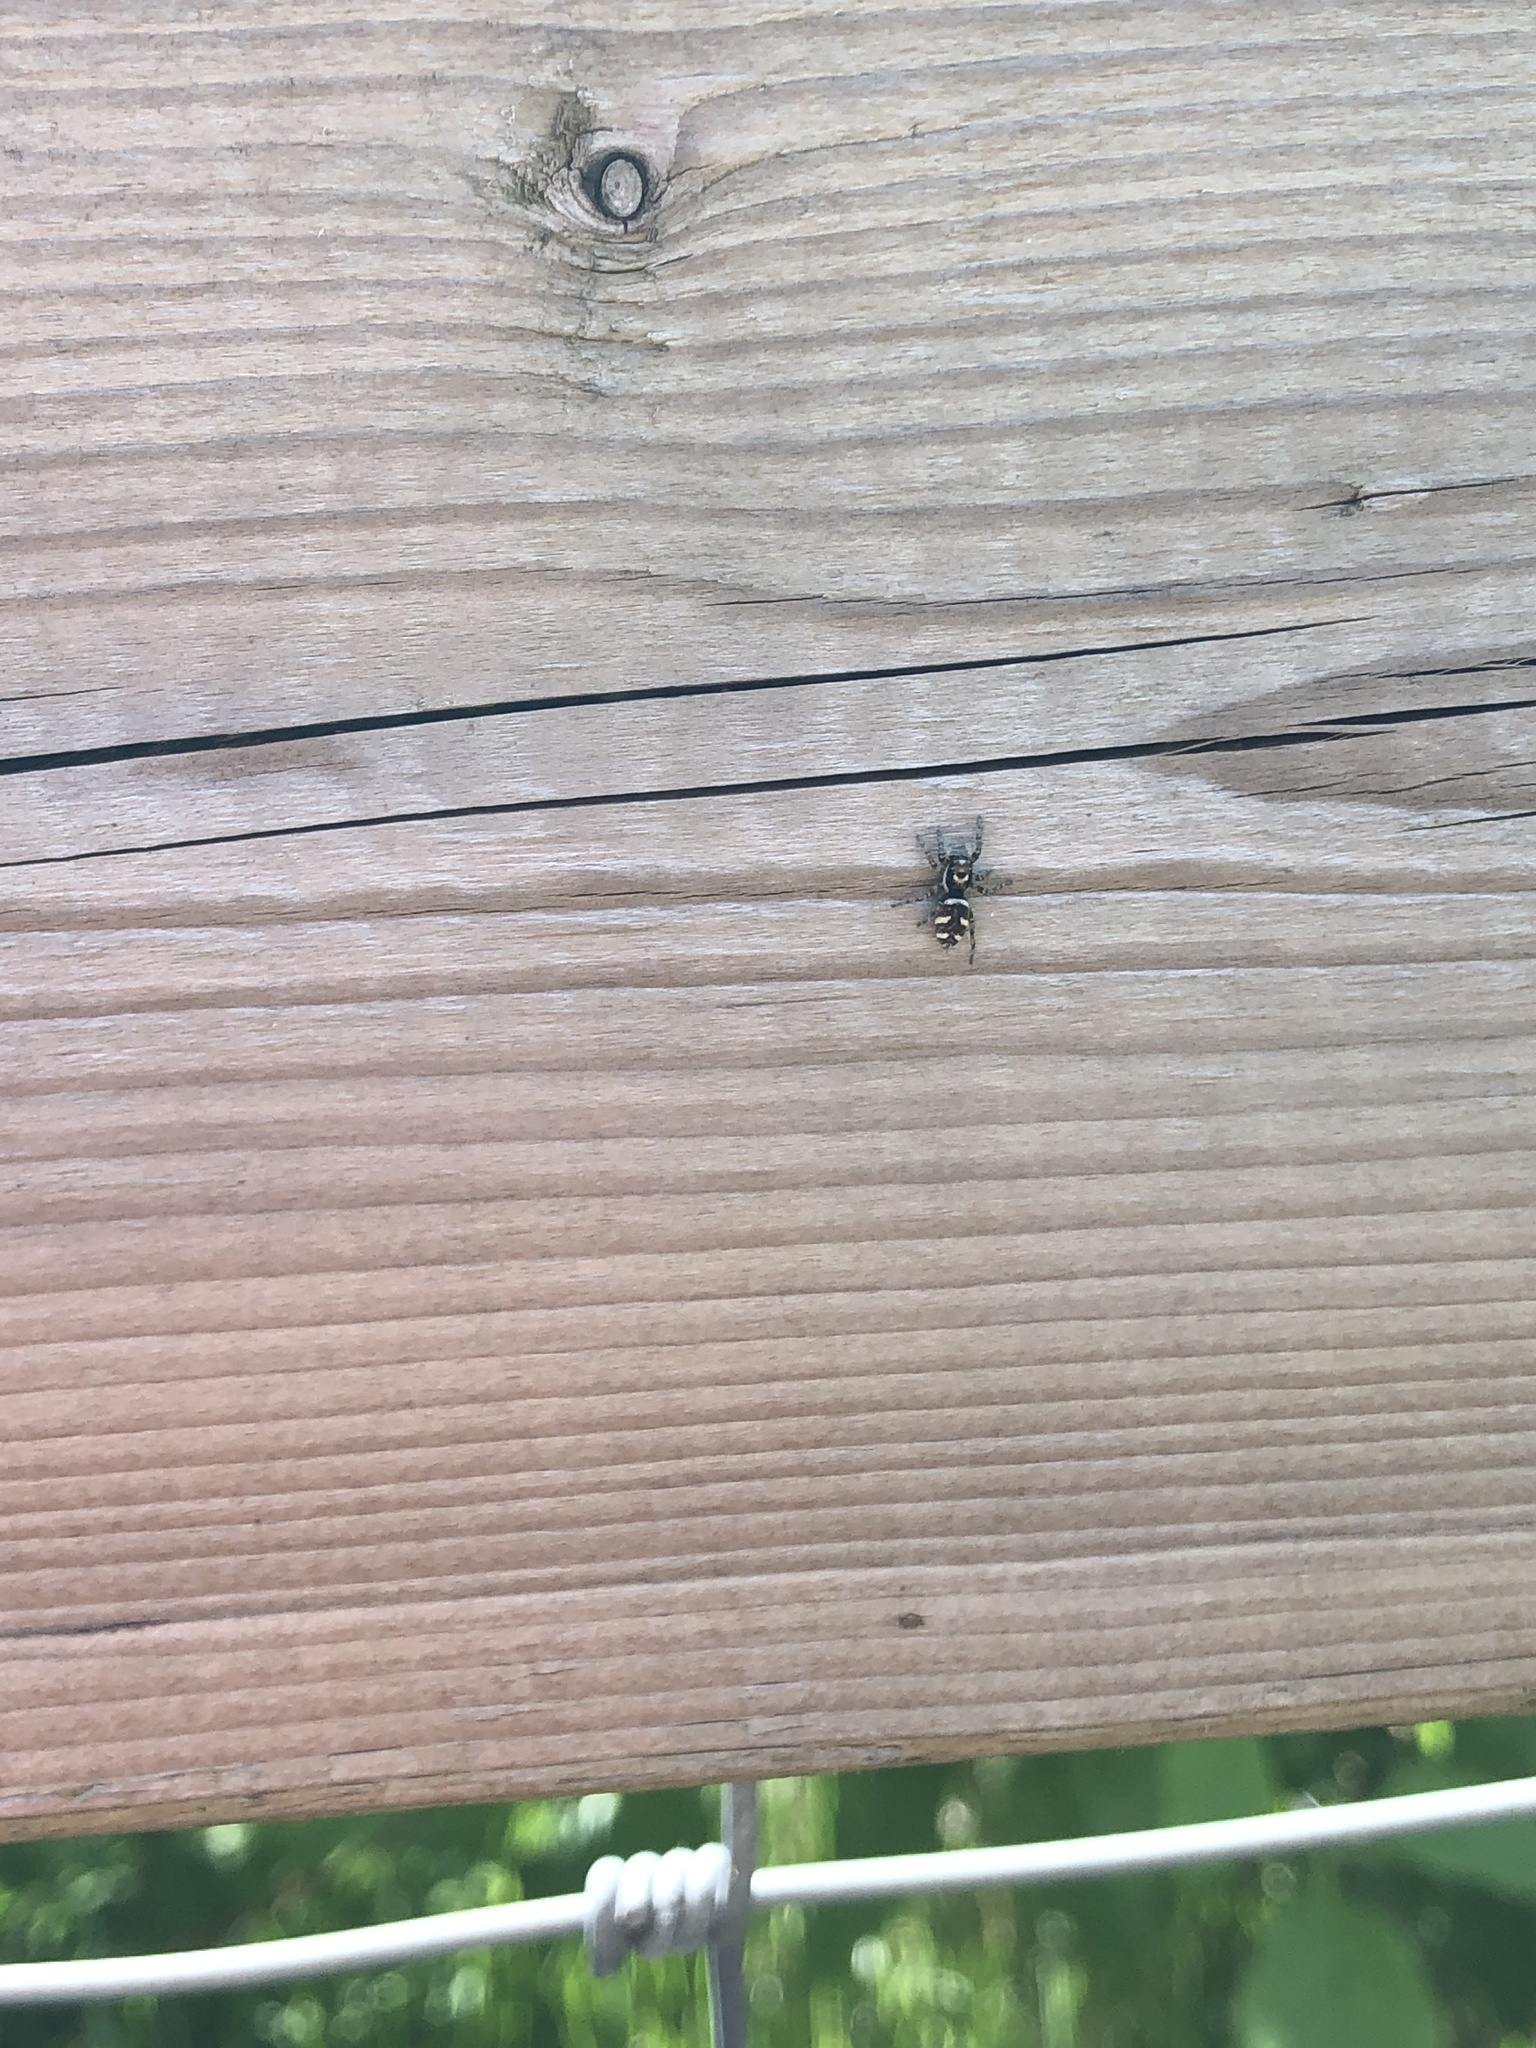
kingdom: Animalia
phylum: Arthropoda
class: Arachnida
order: Araneae
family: Salticidae
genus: Salticus
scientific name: Salticus scenicus
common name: Zebra jumper
